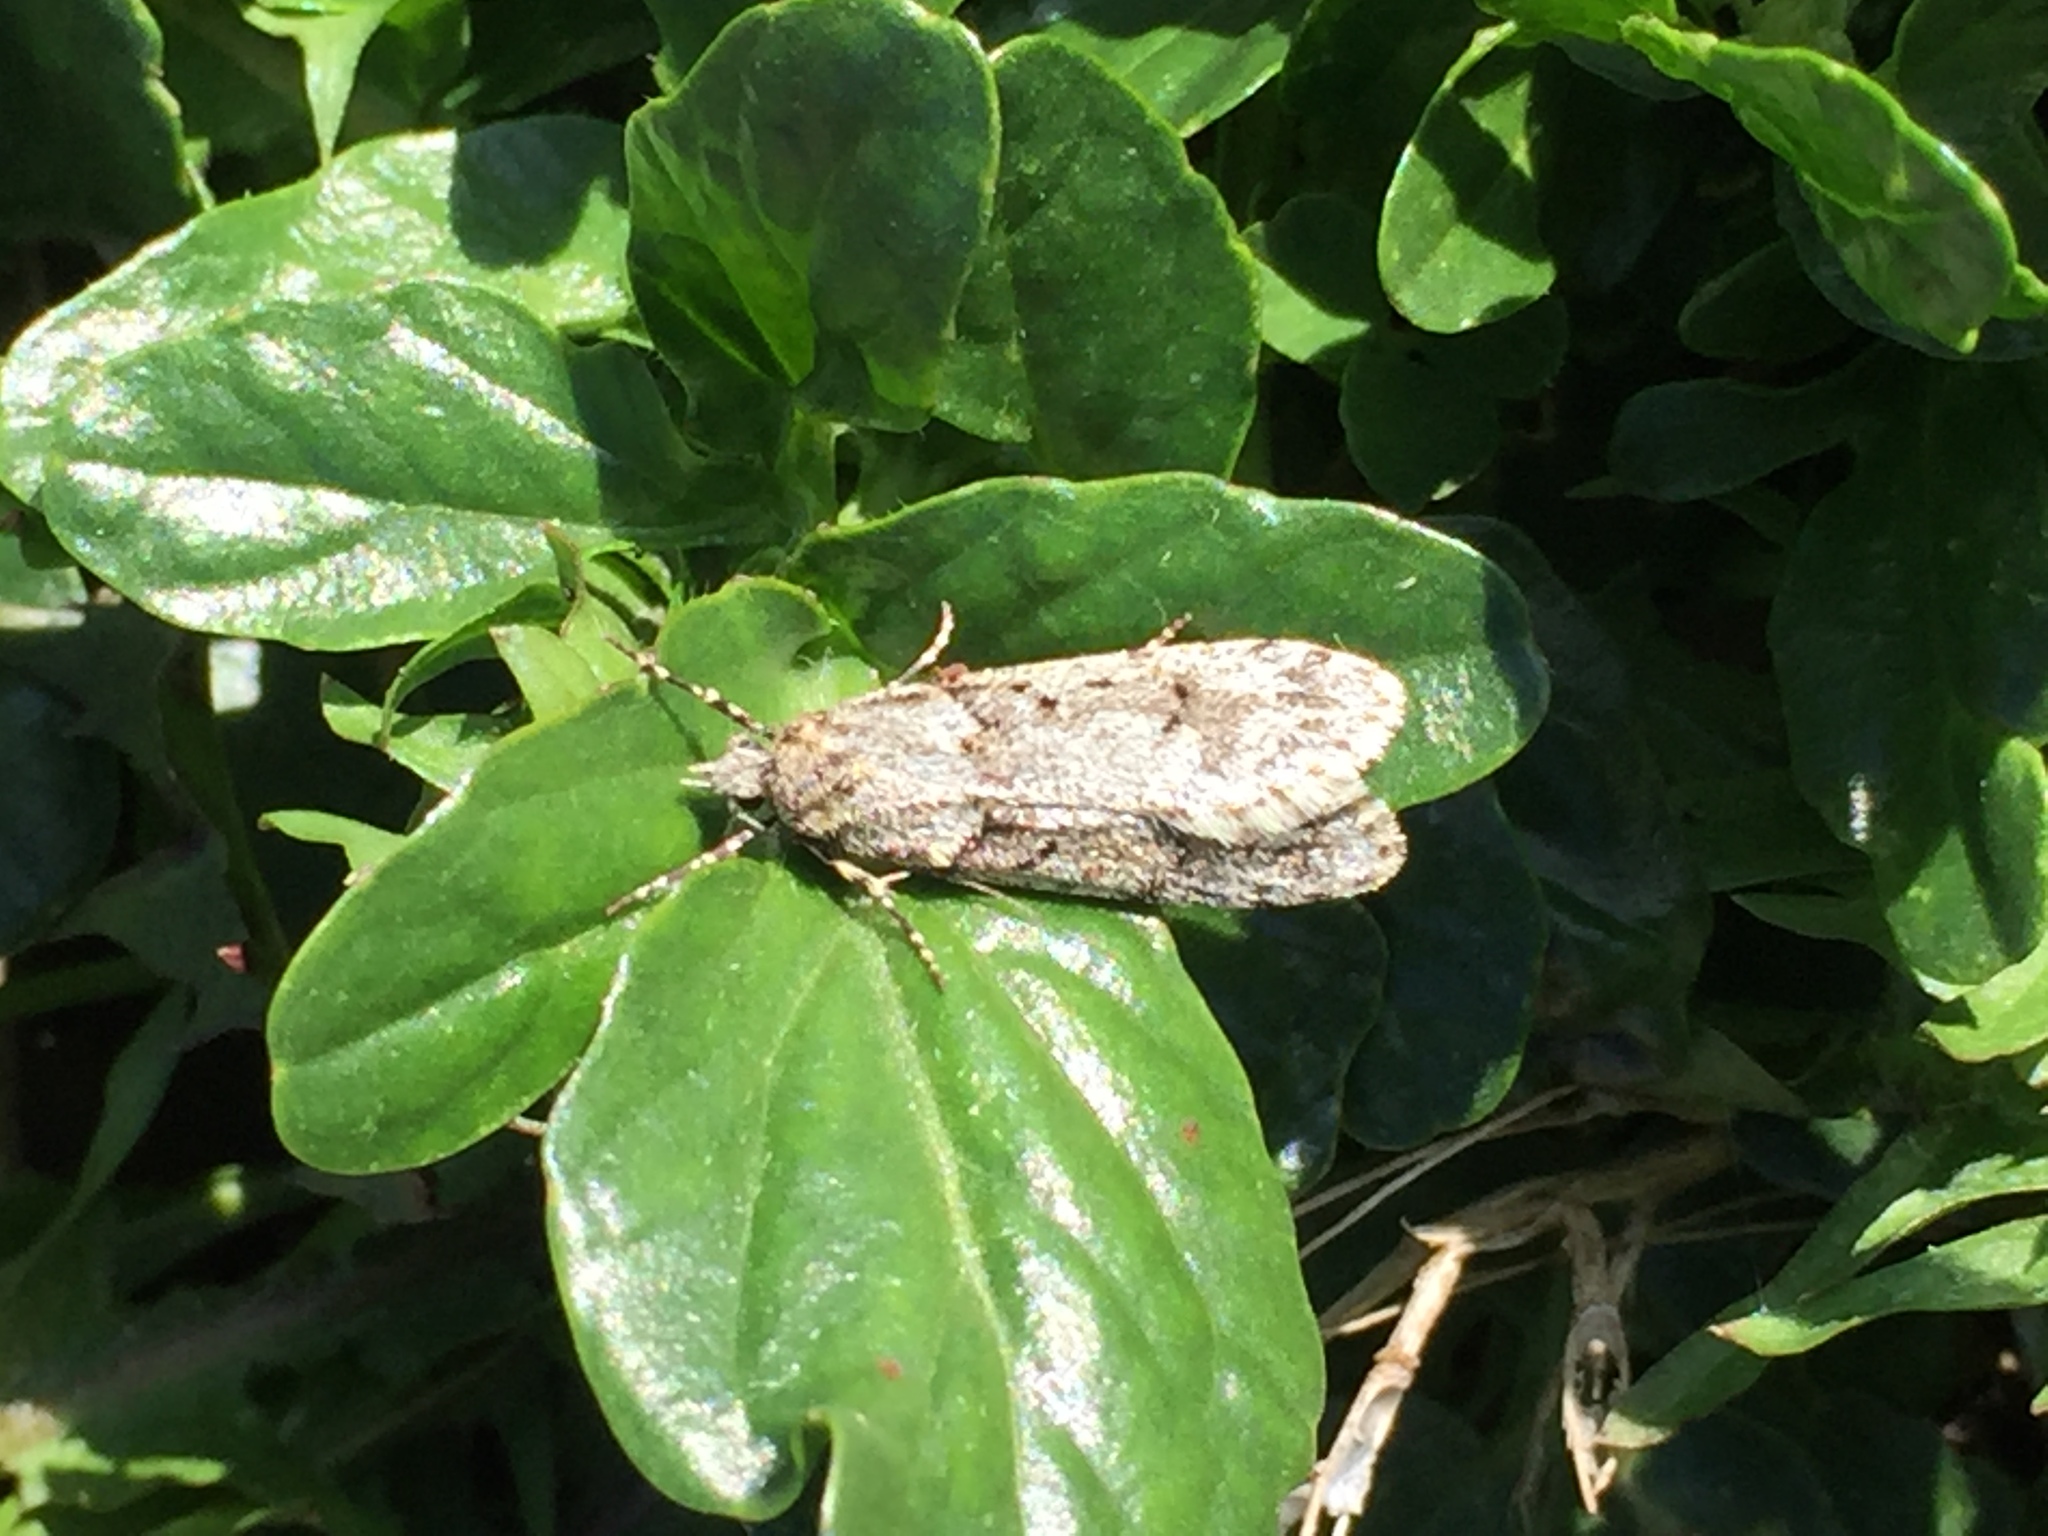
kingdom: Animalia
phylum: Arthropoda
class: Insecta
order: Lepidoptera
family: Lypusidae
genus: Diurnea
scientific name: Diurnea fagella
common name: March tubic
